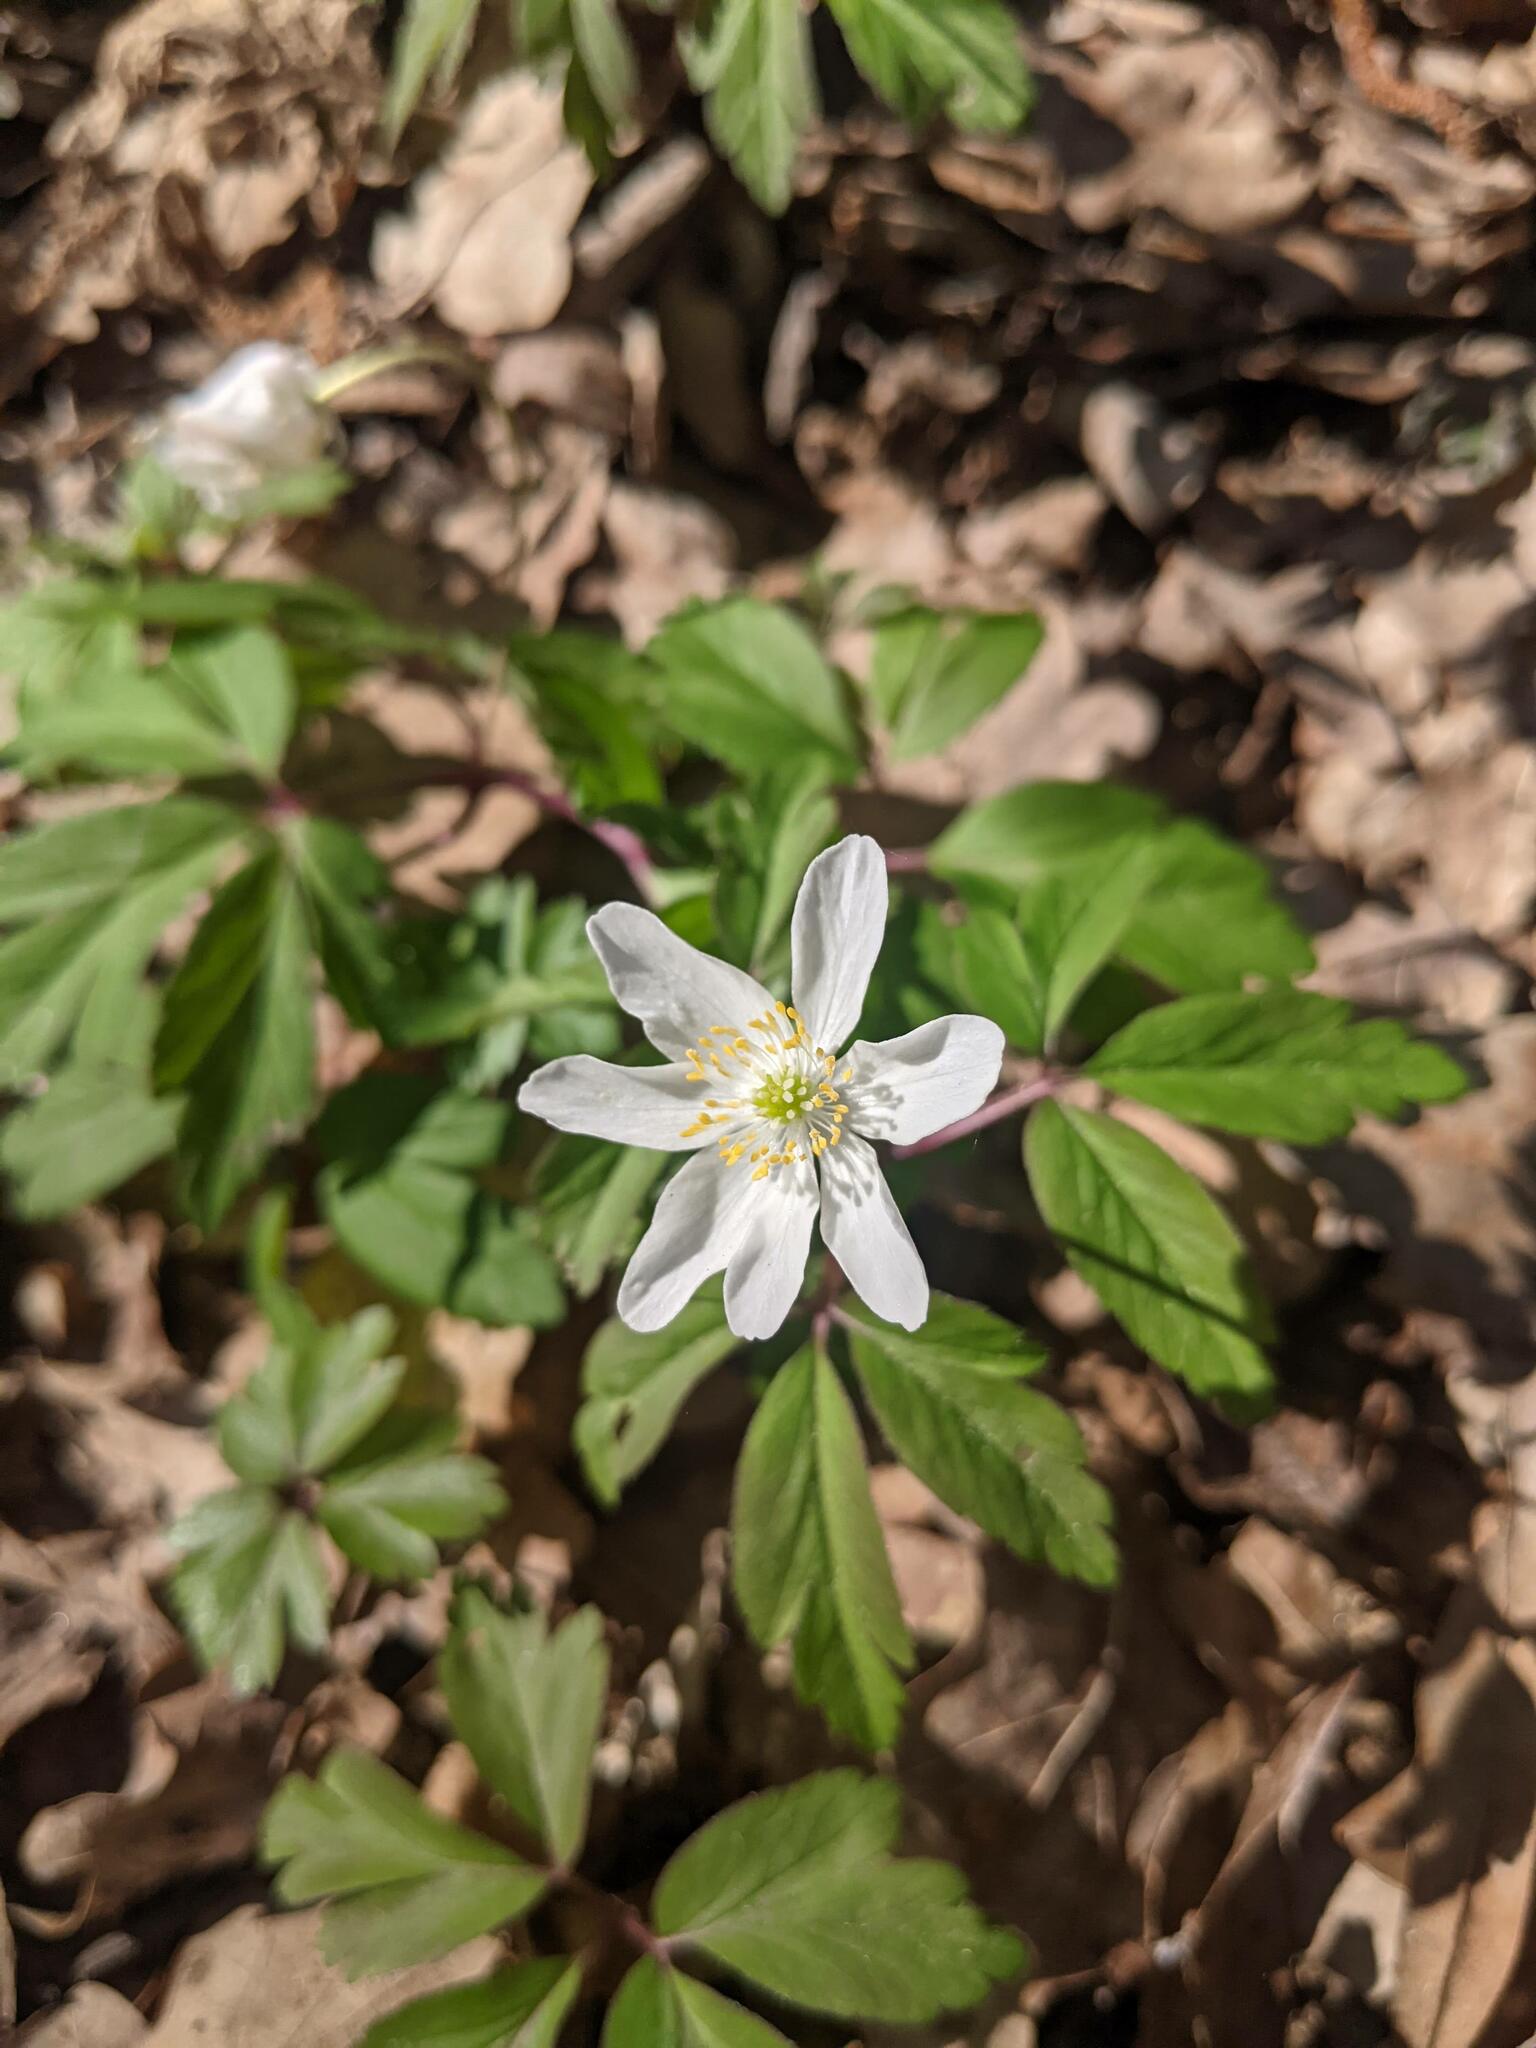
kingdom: Plantae
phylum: Tracheophyta
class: Magnoliopsida
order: Ranunculales
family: Ranunculaceae
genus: Anemone
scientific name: Anemone nemorosa
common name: Wood anemone
